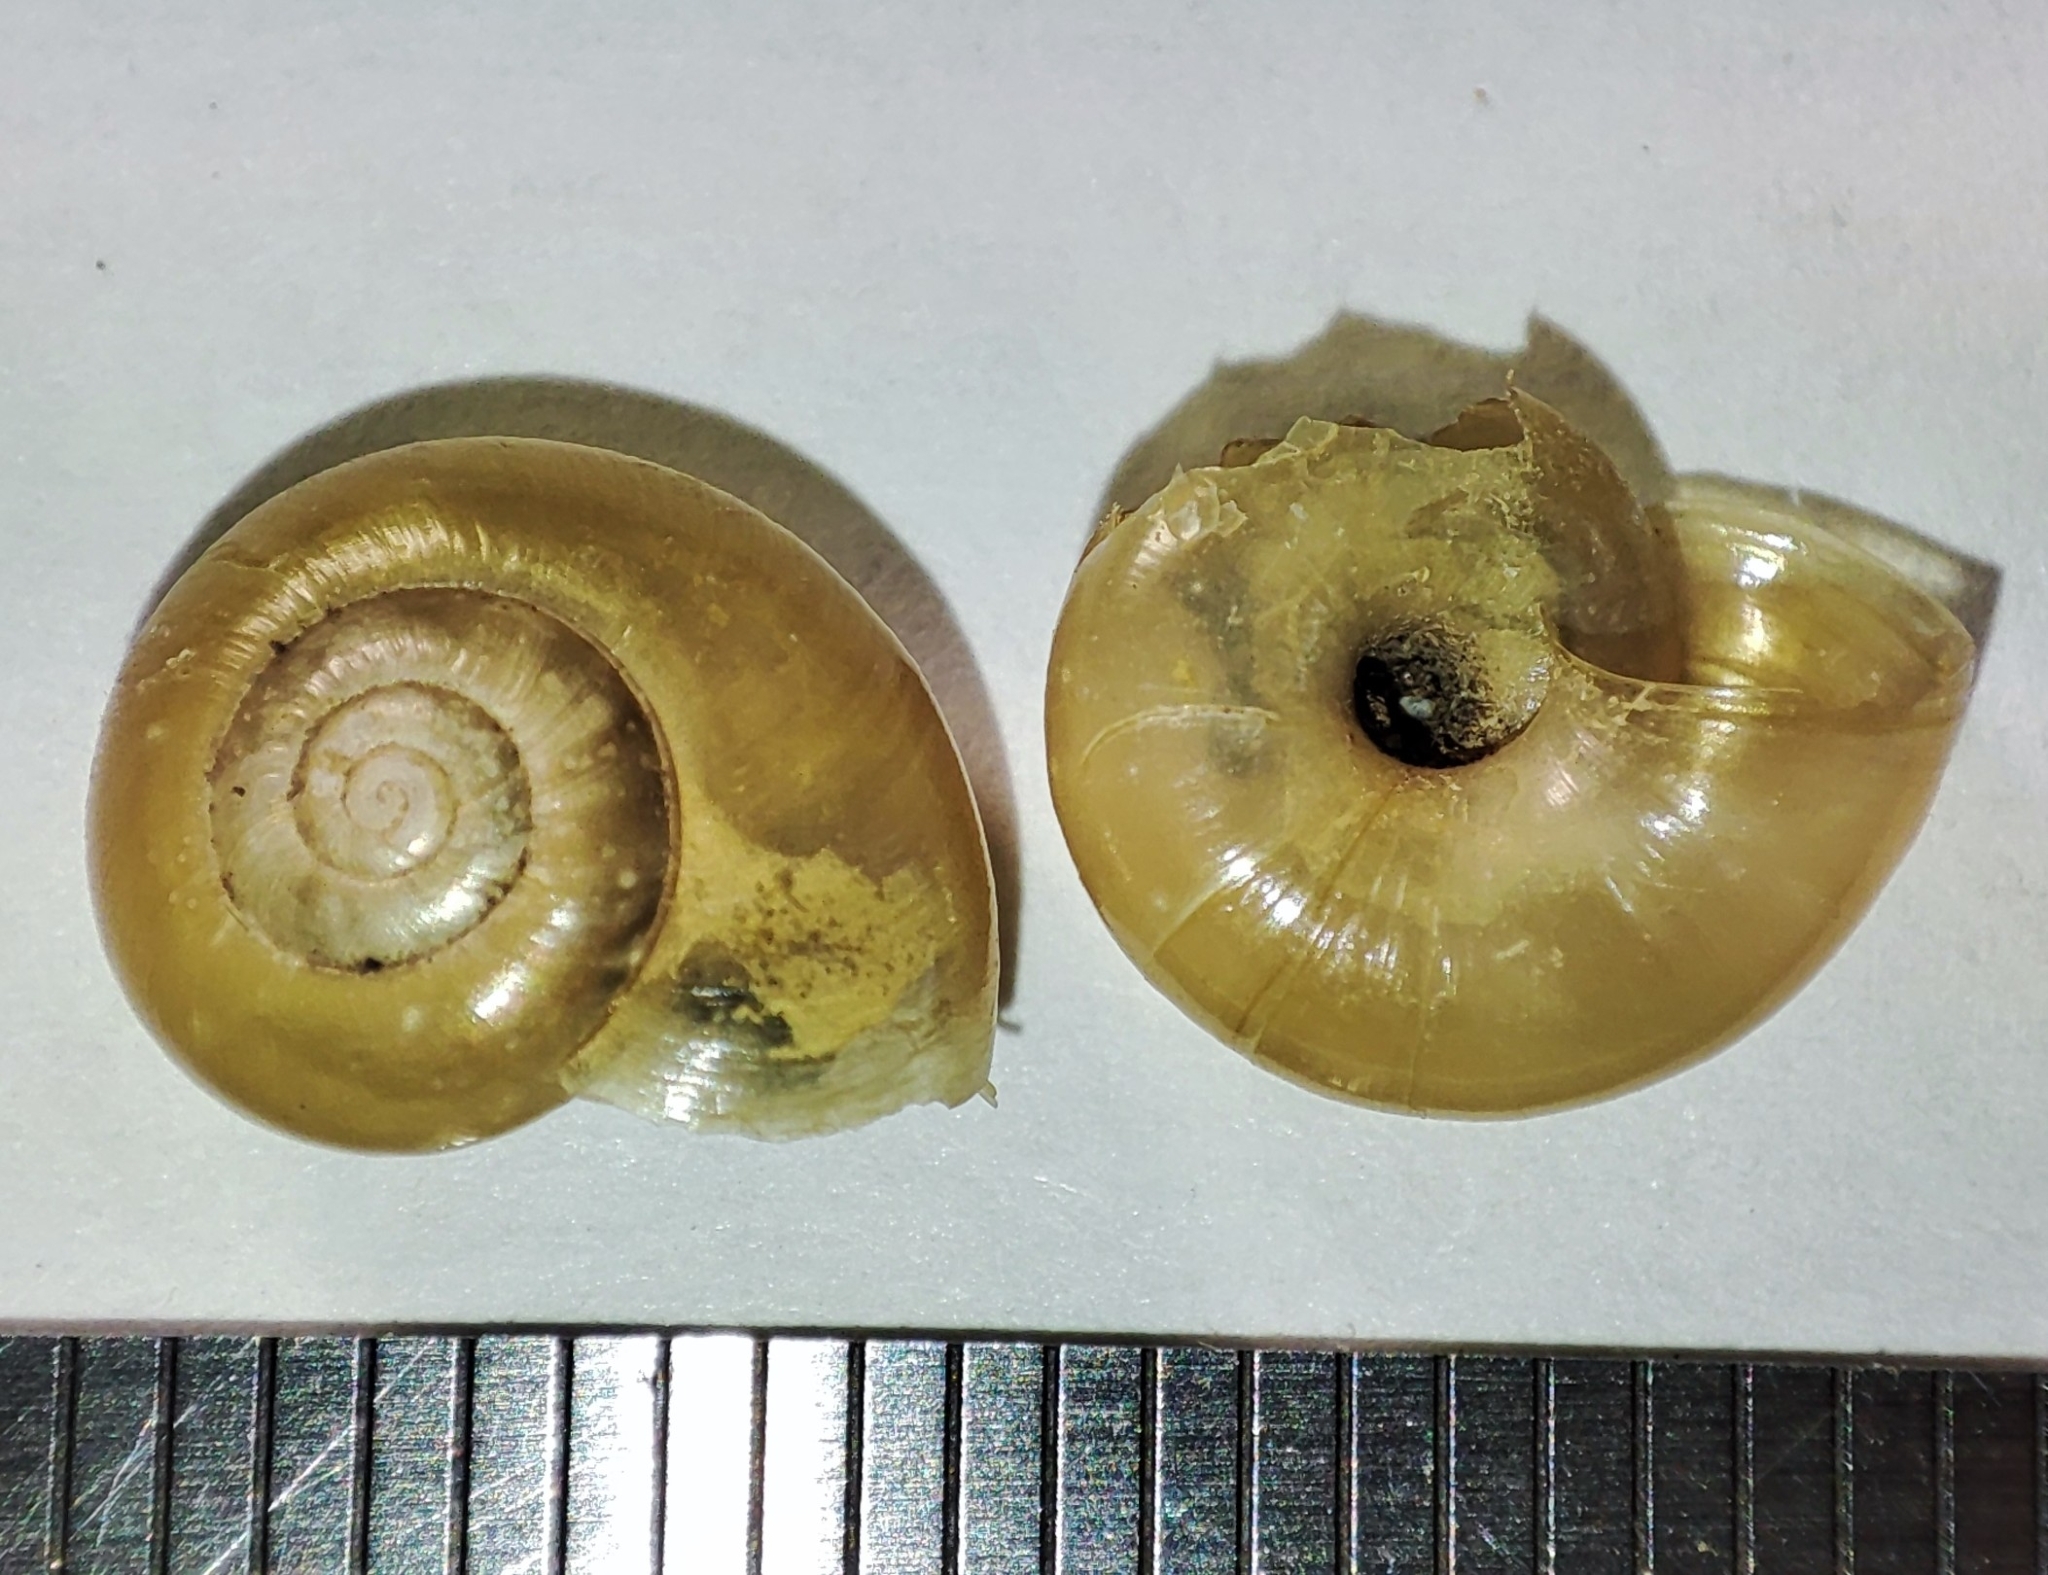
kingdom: Animalia
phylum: Mollusca
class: Gastropoda
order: Stylommatophora
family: Gastrodontidae
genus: Aegopinella
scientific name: Aegopinella nitens
